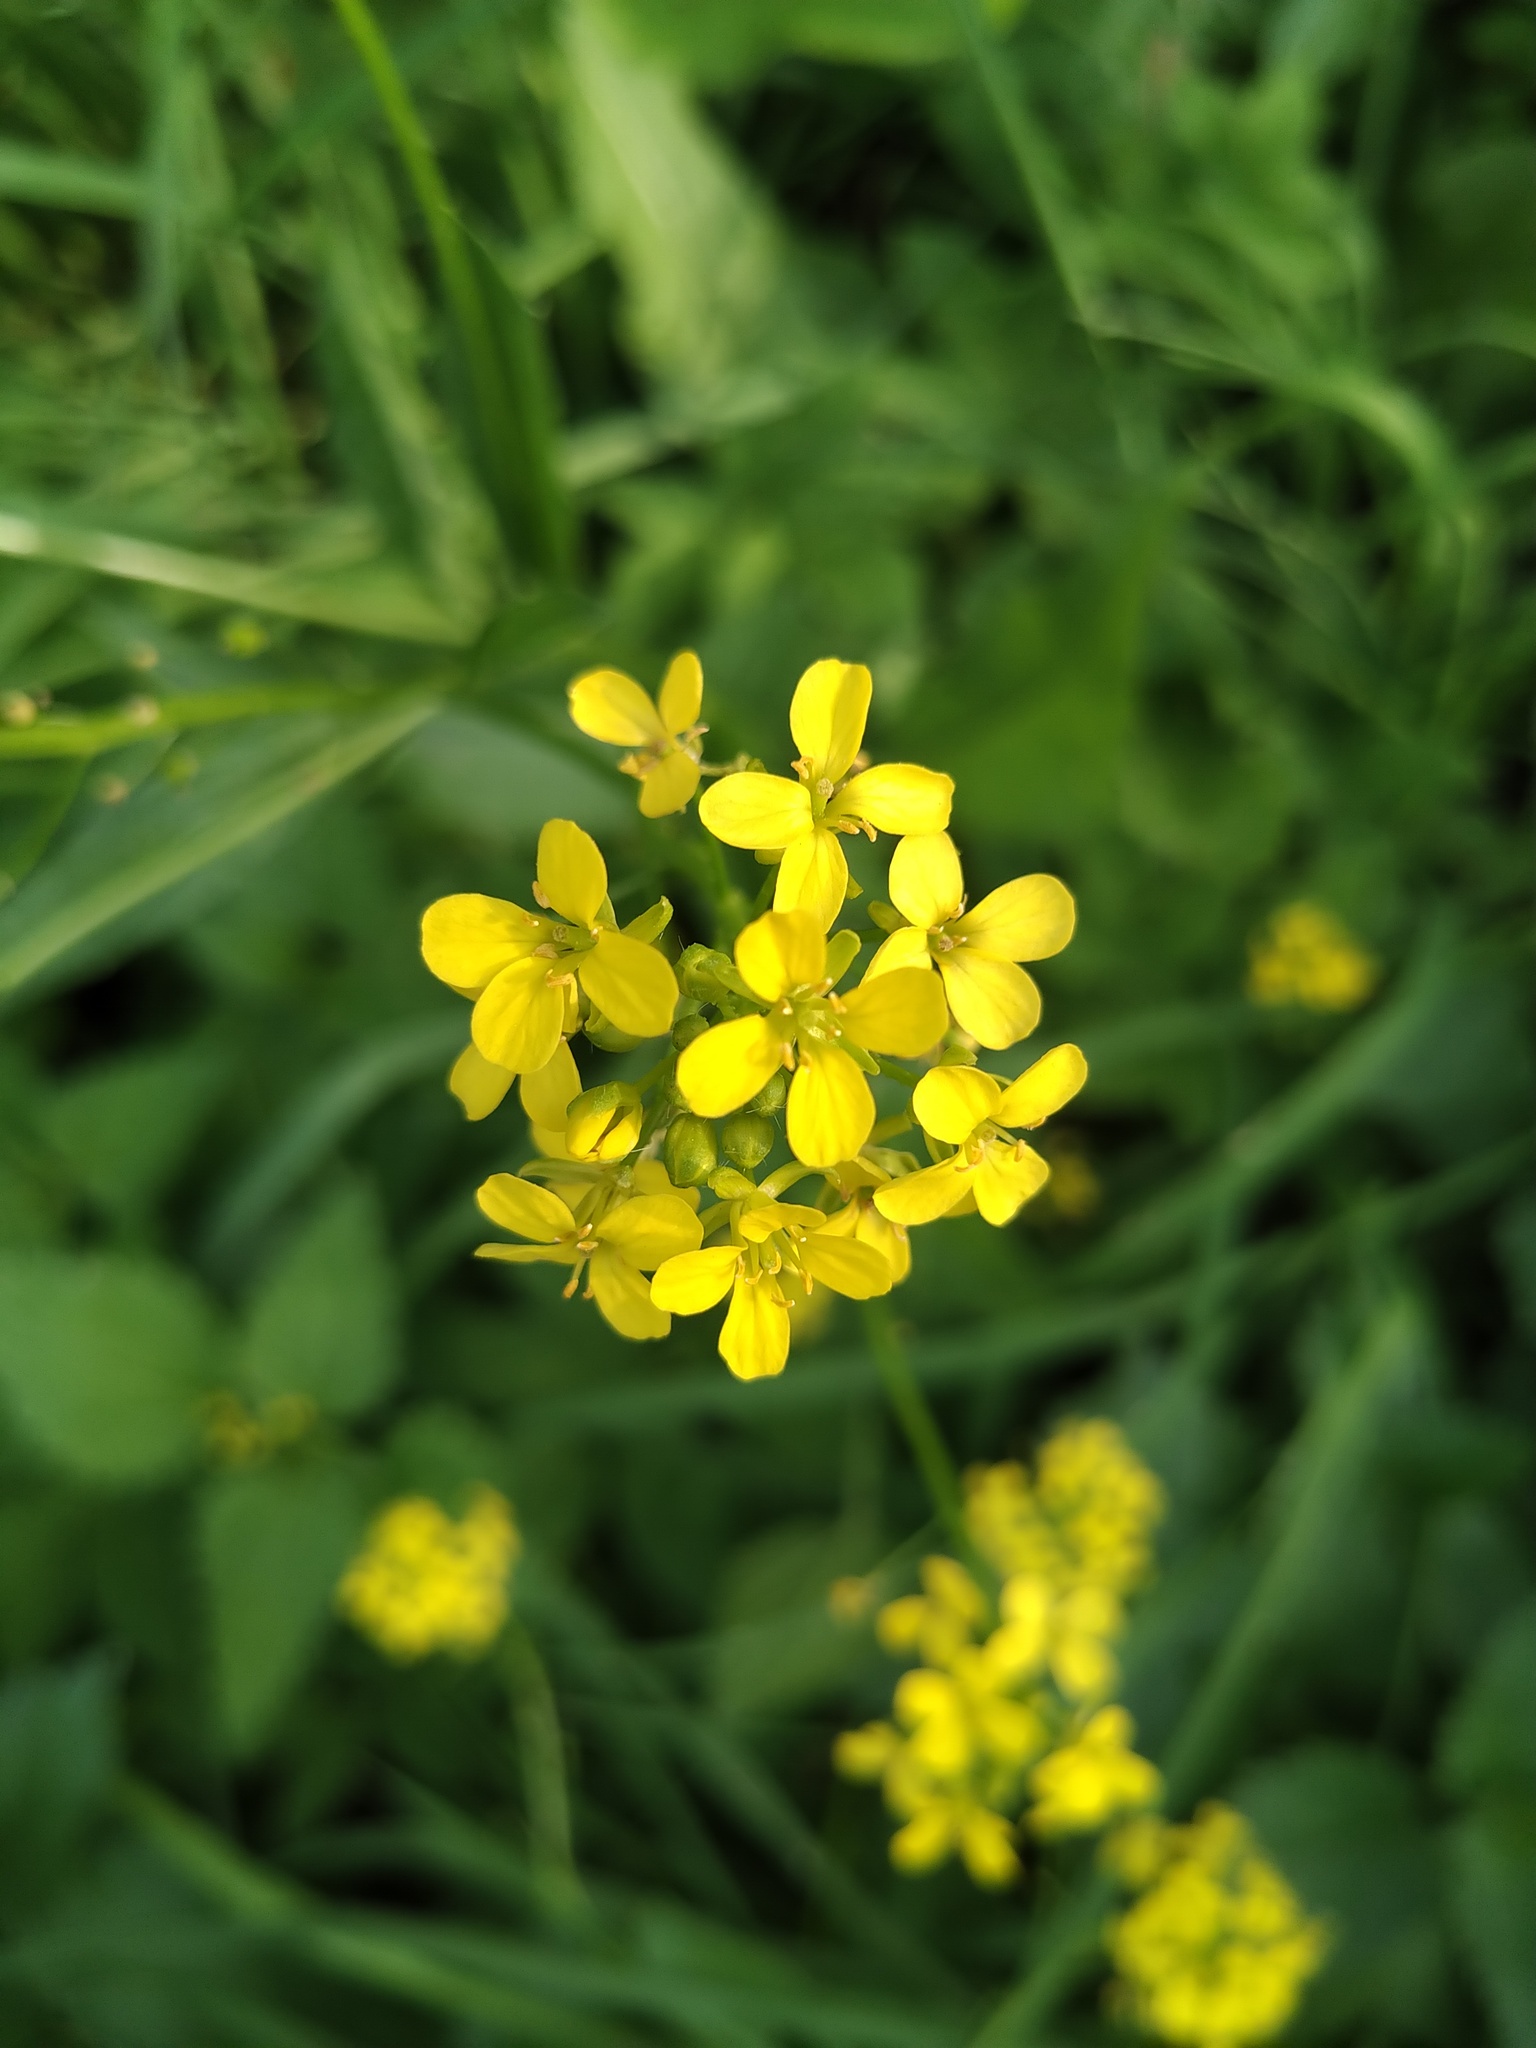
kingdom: Plantae
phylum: Tracheophyta
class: Magnoliopsida
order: Brassicales
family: Brassicaceae
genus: Bunias
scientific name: Bunias orientalis
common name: Warty-cabbage
